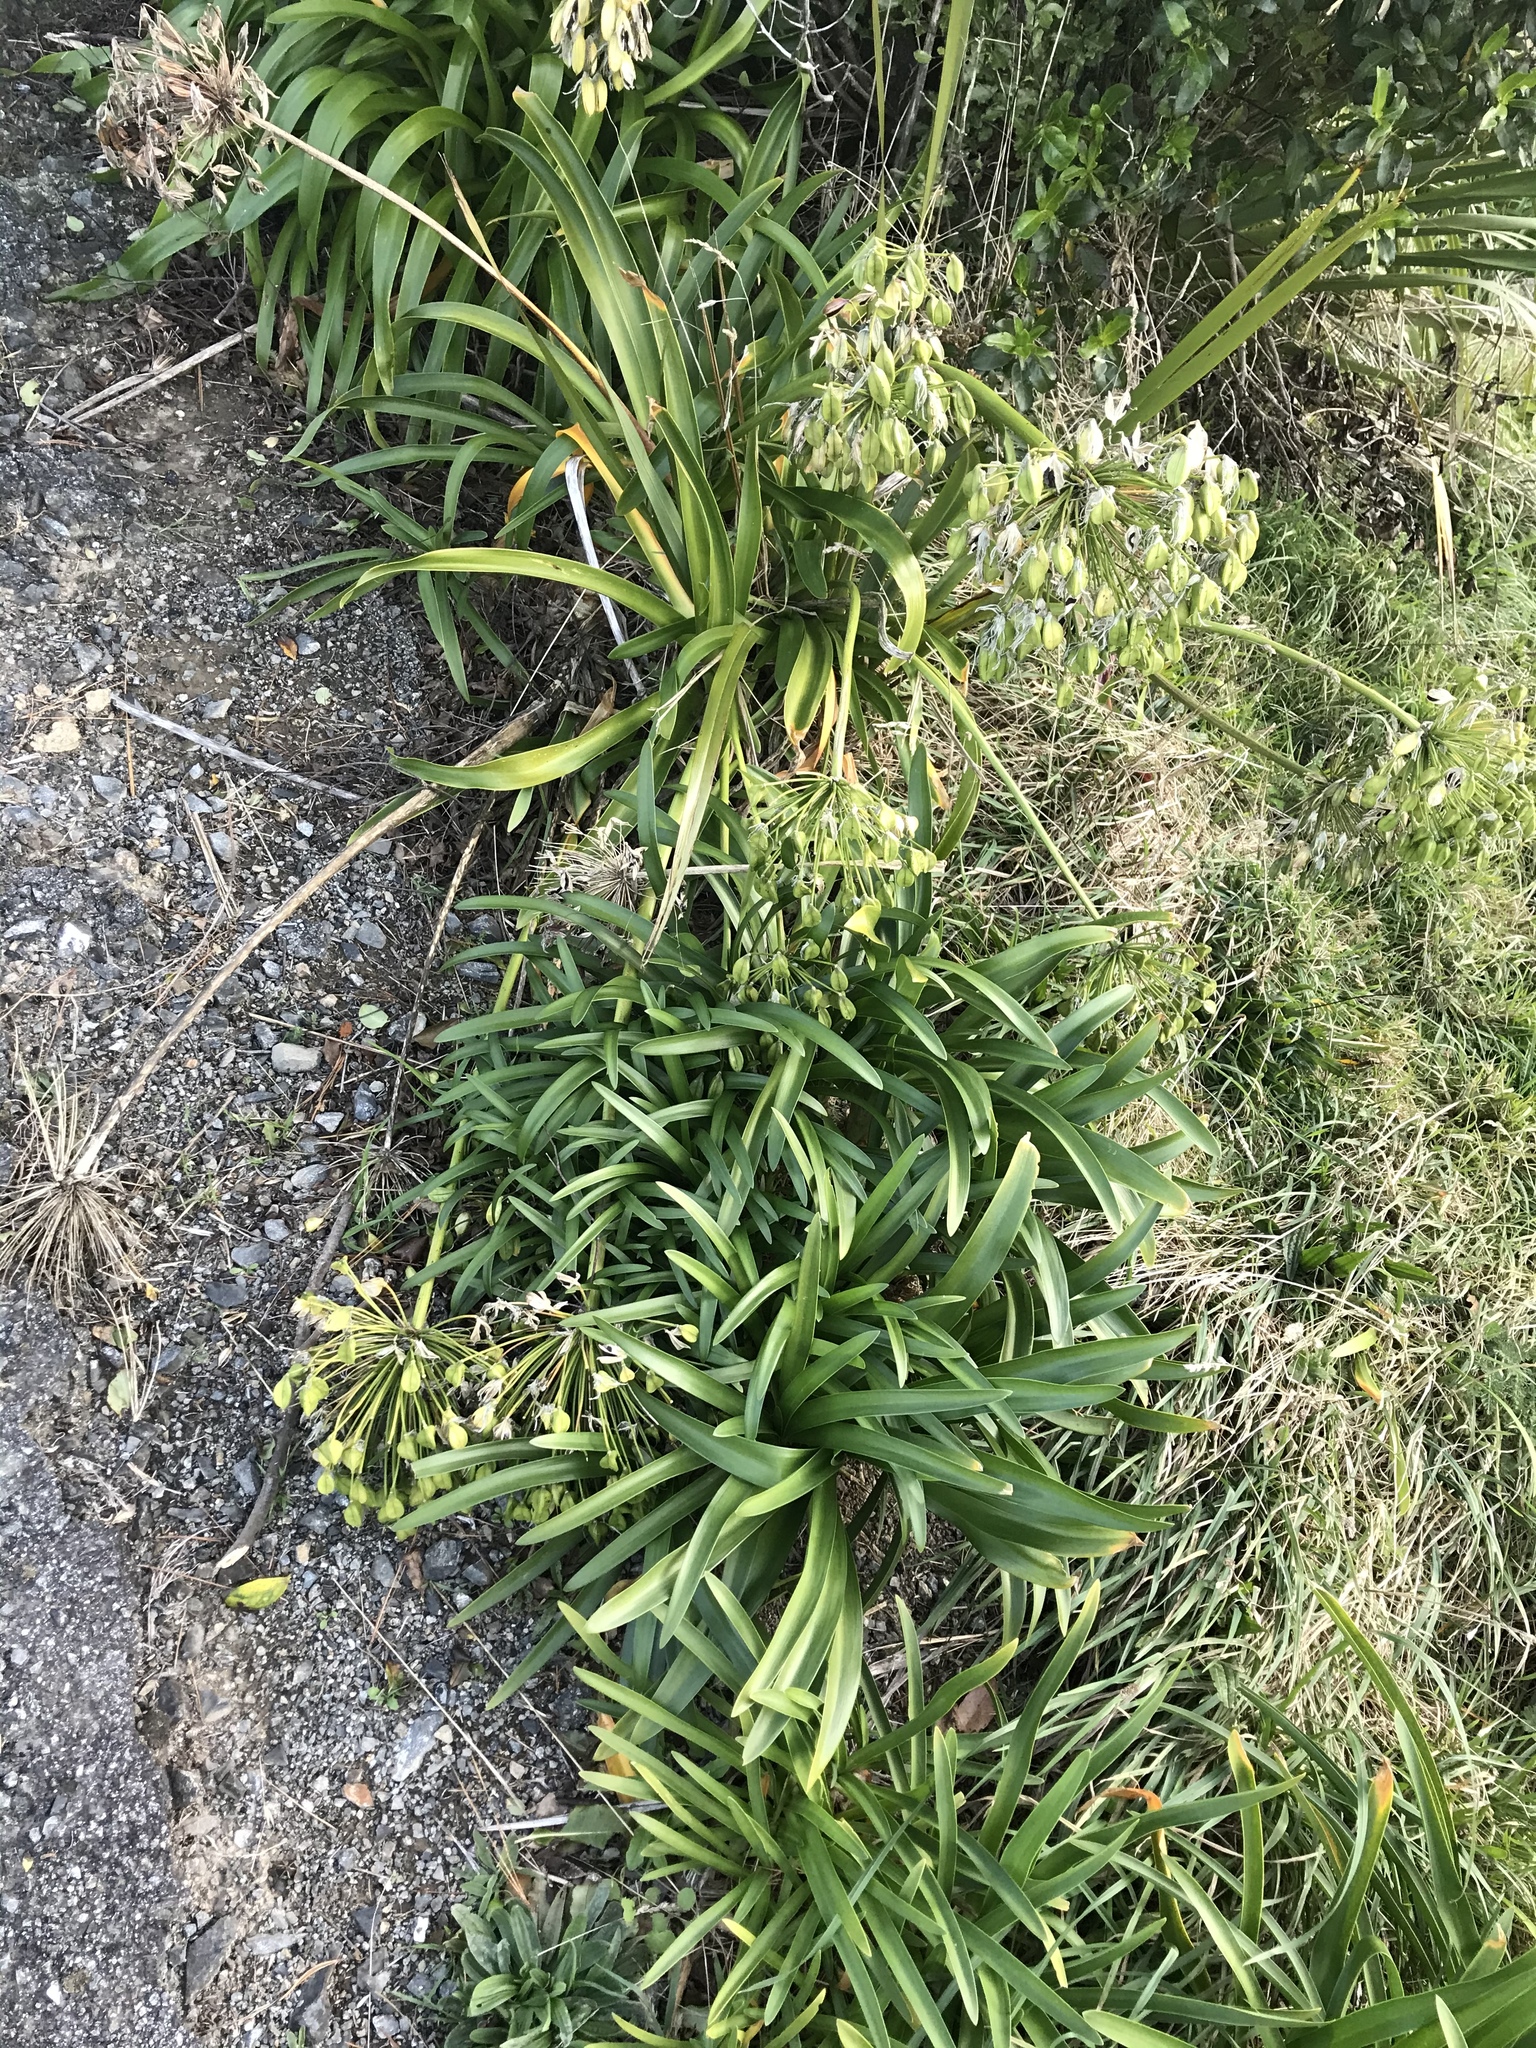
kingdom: Plantae
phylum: Tracheophyta
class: Liliopsida
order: Asparagales
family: Amaryllidaceae
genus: Agapanthus
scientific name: Agapanthus praecox
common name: African-lily
